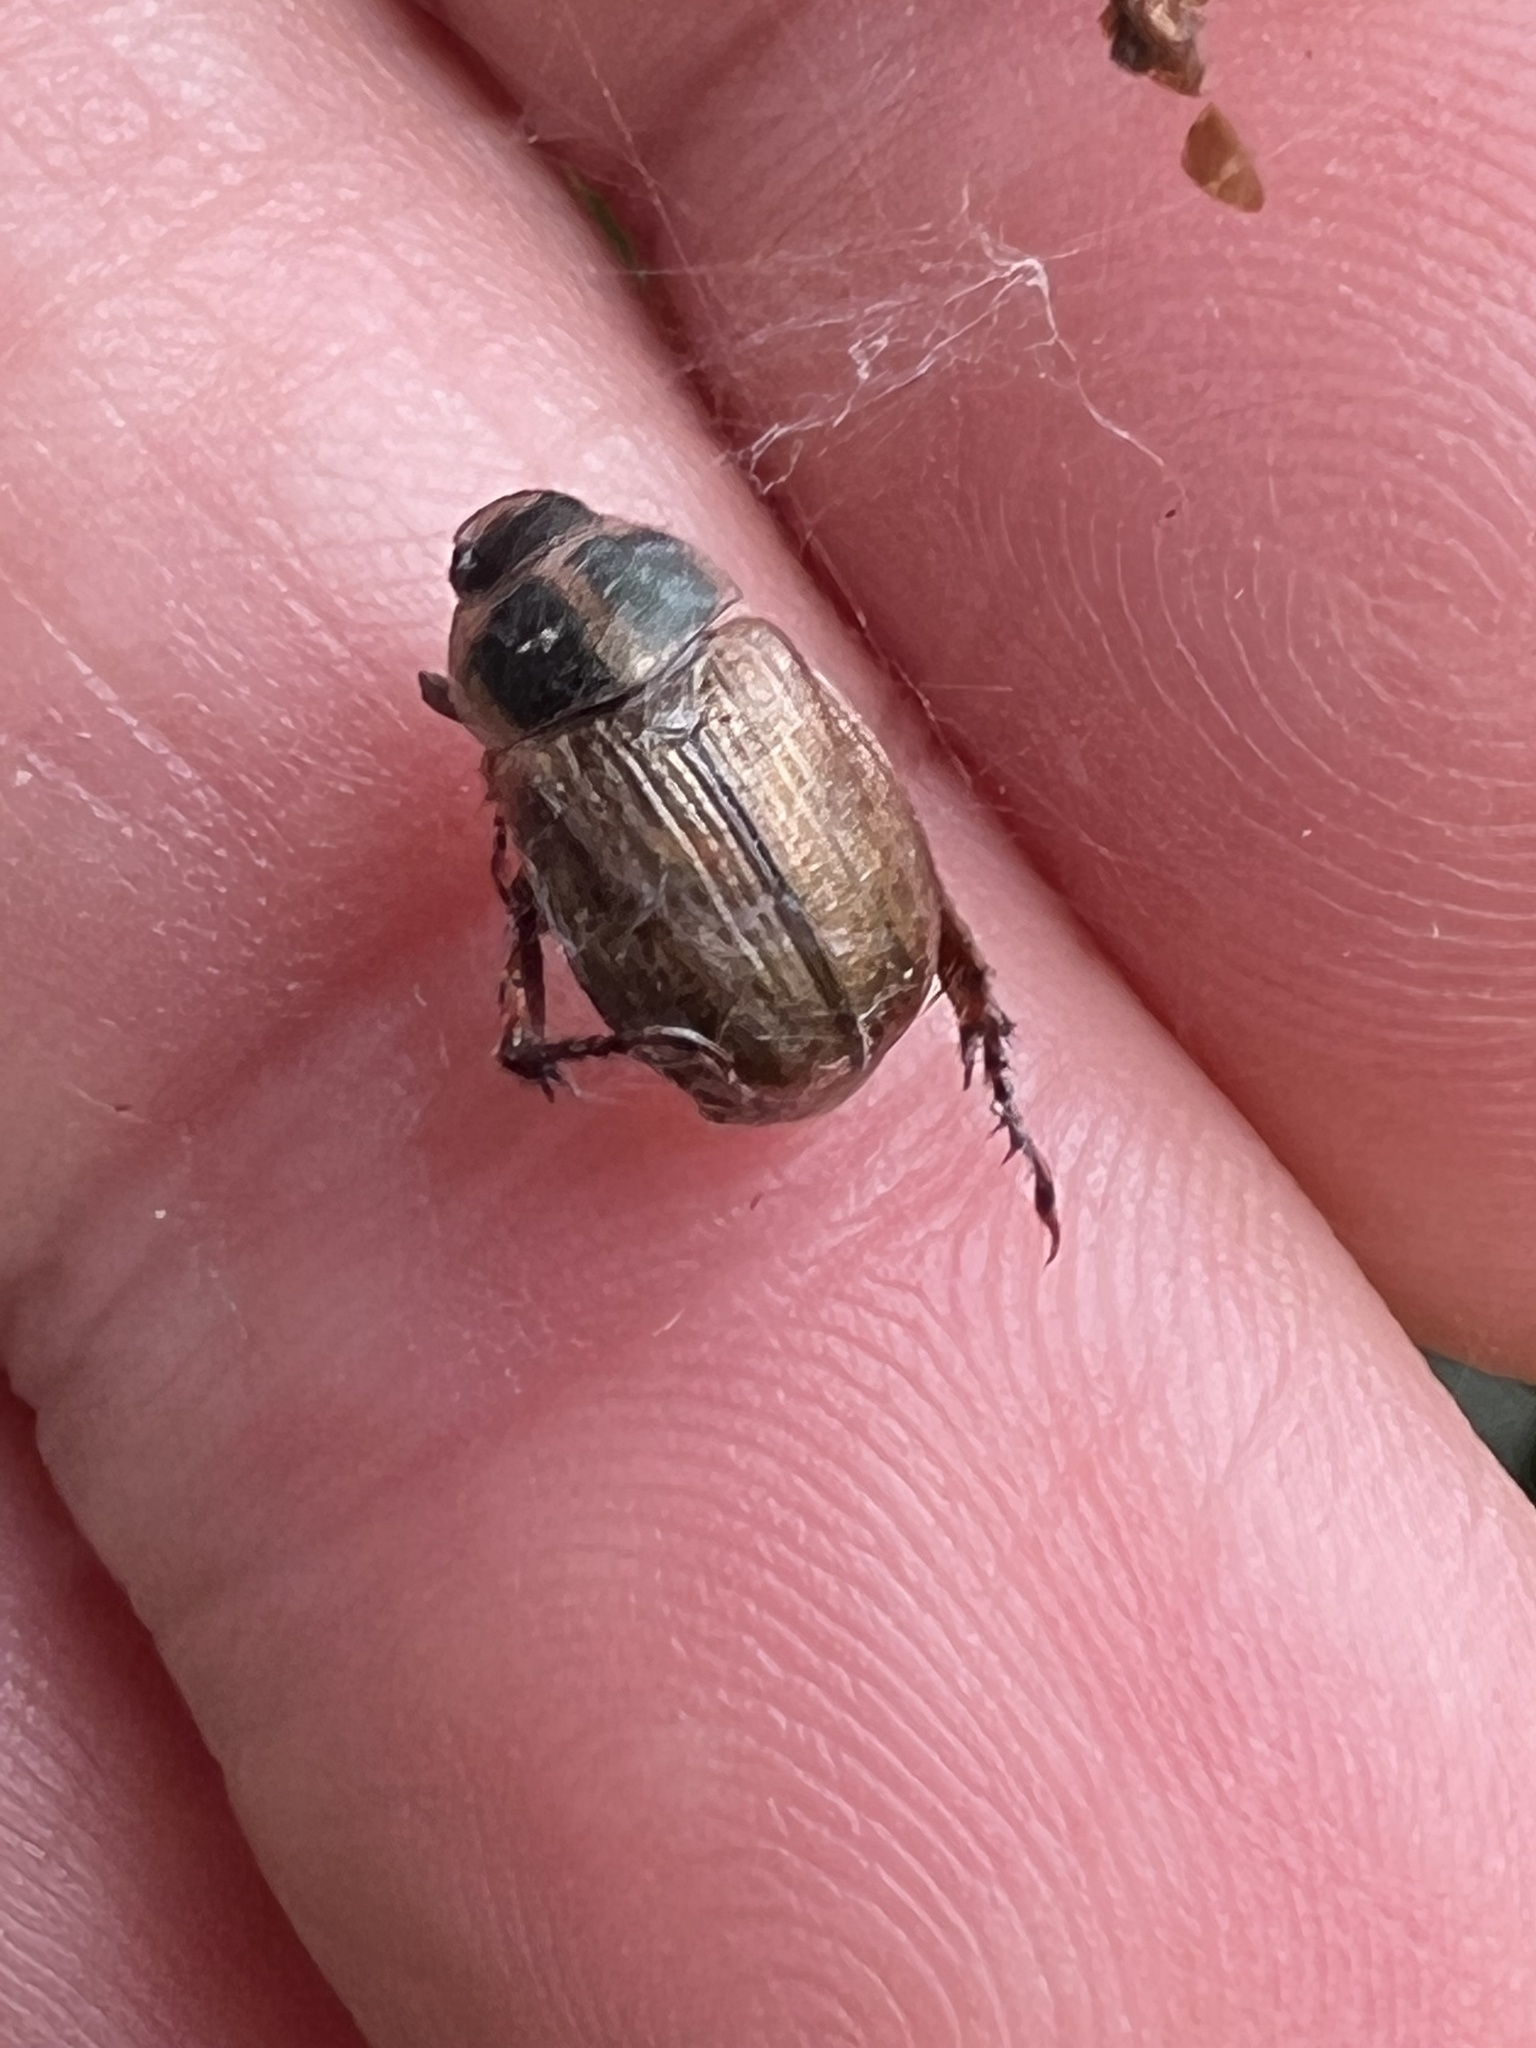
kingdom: Animalia
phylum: Arthropoda
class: Insecta
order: Coleoptera
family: Scarabaeidae
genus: Exomala
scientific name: Exomala orientalis
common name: Oriental beetle
